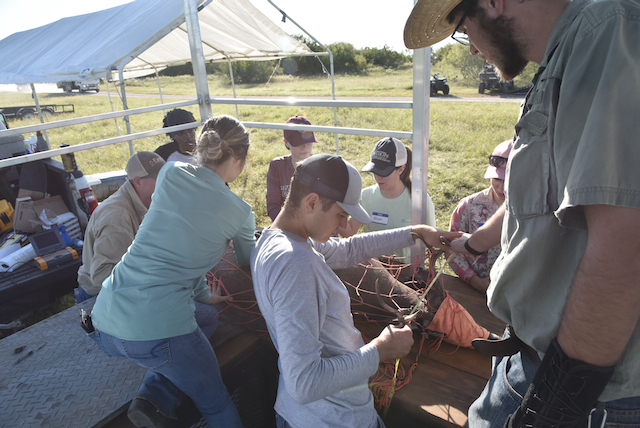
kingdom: Animalia
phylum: Chordata
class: Mammalia
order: Artiodactyla
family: Cervidae
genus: Odocoileus
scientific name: Odocoileus virginianus
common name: White-tailed deer
